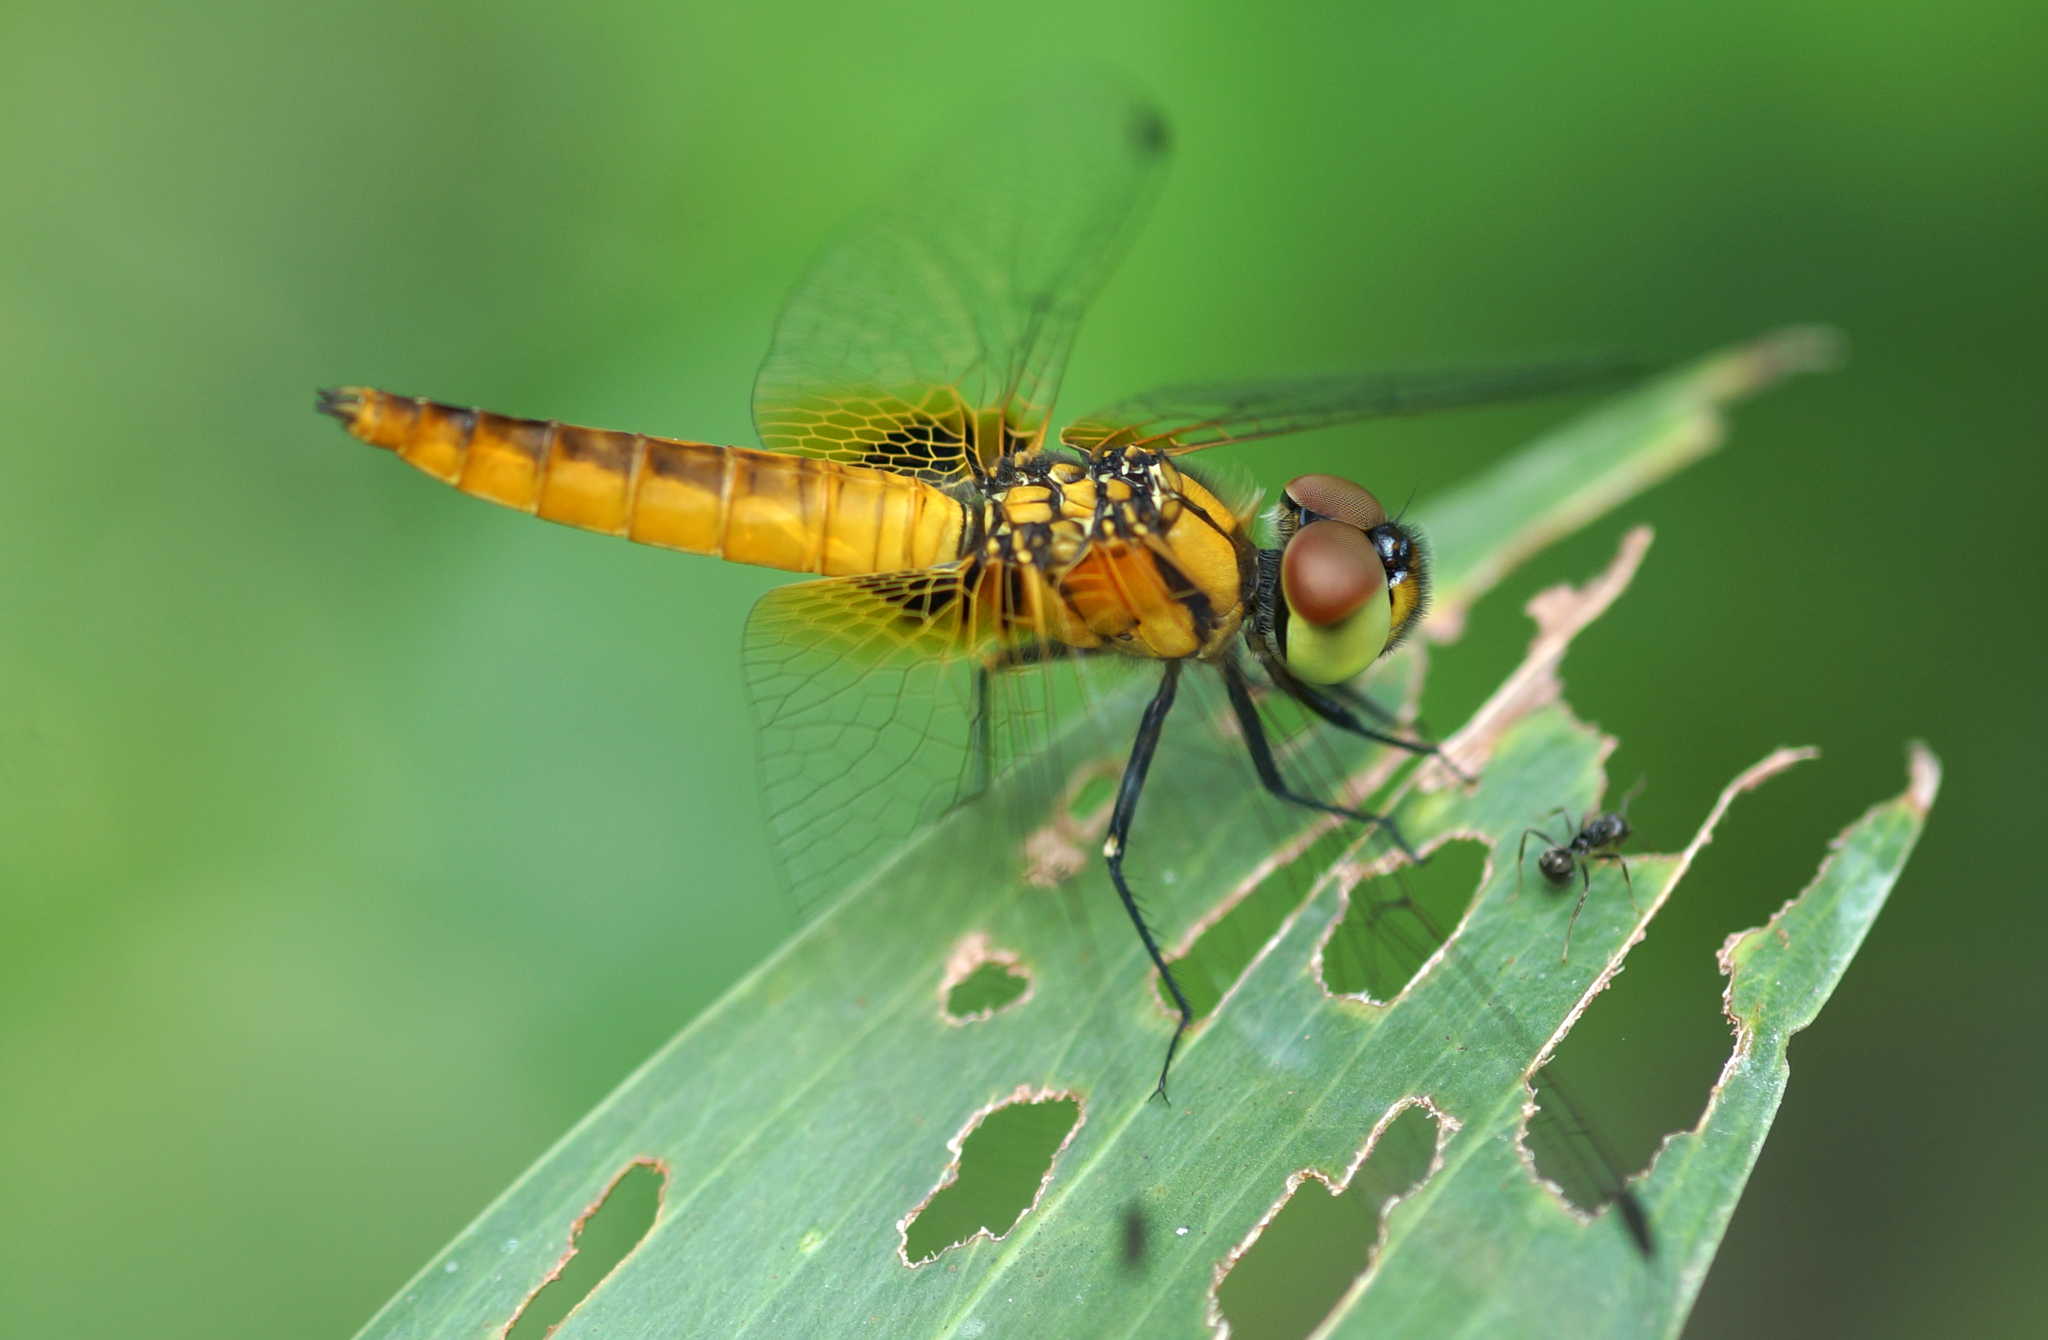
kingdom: Animalia
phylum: Arthropoda
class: Insecta
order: Odonata
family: Libellulidae
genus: Aethriamanta
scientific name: Aethriamanta brevipennis
